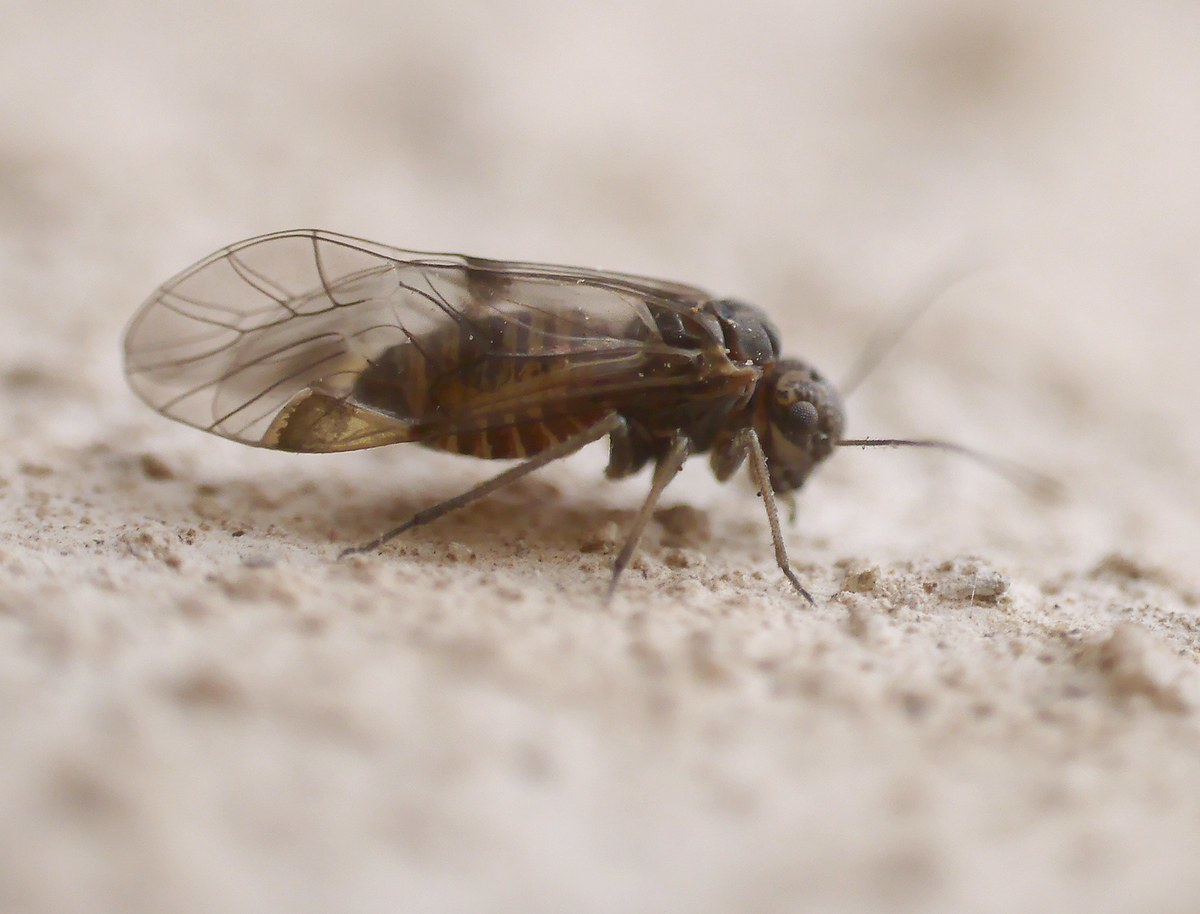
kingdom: Animalia
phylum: Arthropoda
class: Insecta
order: Psocodea
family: Psocidae
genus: Amphigerontia
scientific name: Amphigerontia contaminata
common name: Common bark louse
